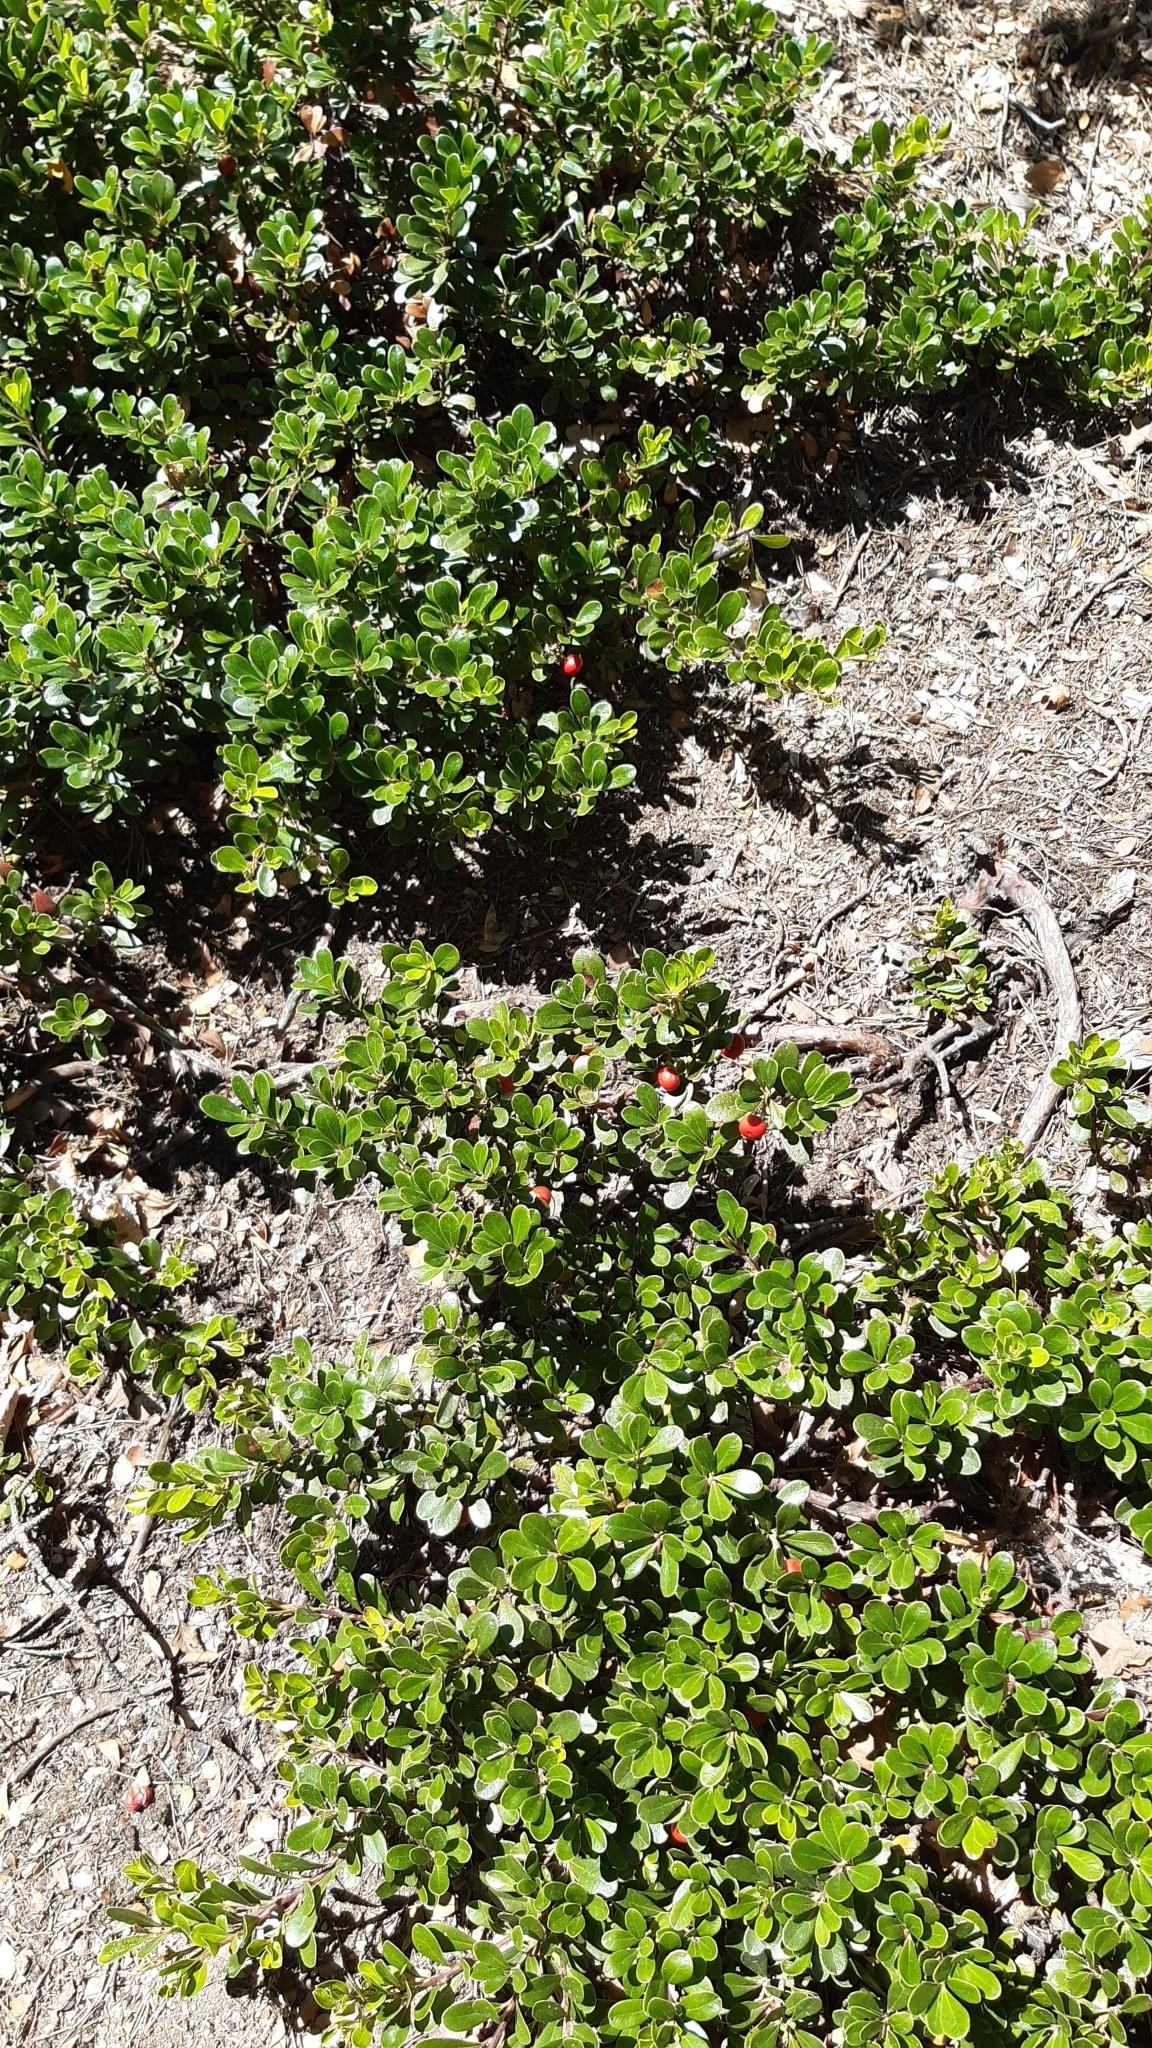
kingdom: Plantae
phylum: Tracheophyta
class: Magnoliopsida
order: Ericales
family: Ericaceae
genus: Arctostaphylos
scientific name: Arctostaphylos uva-ursi
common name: Bearberry
